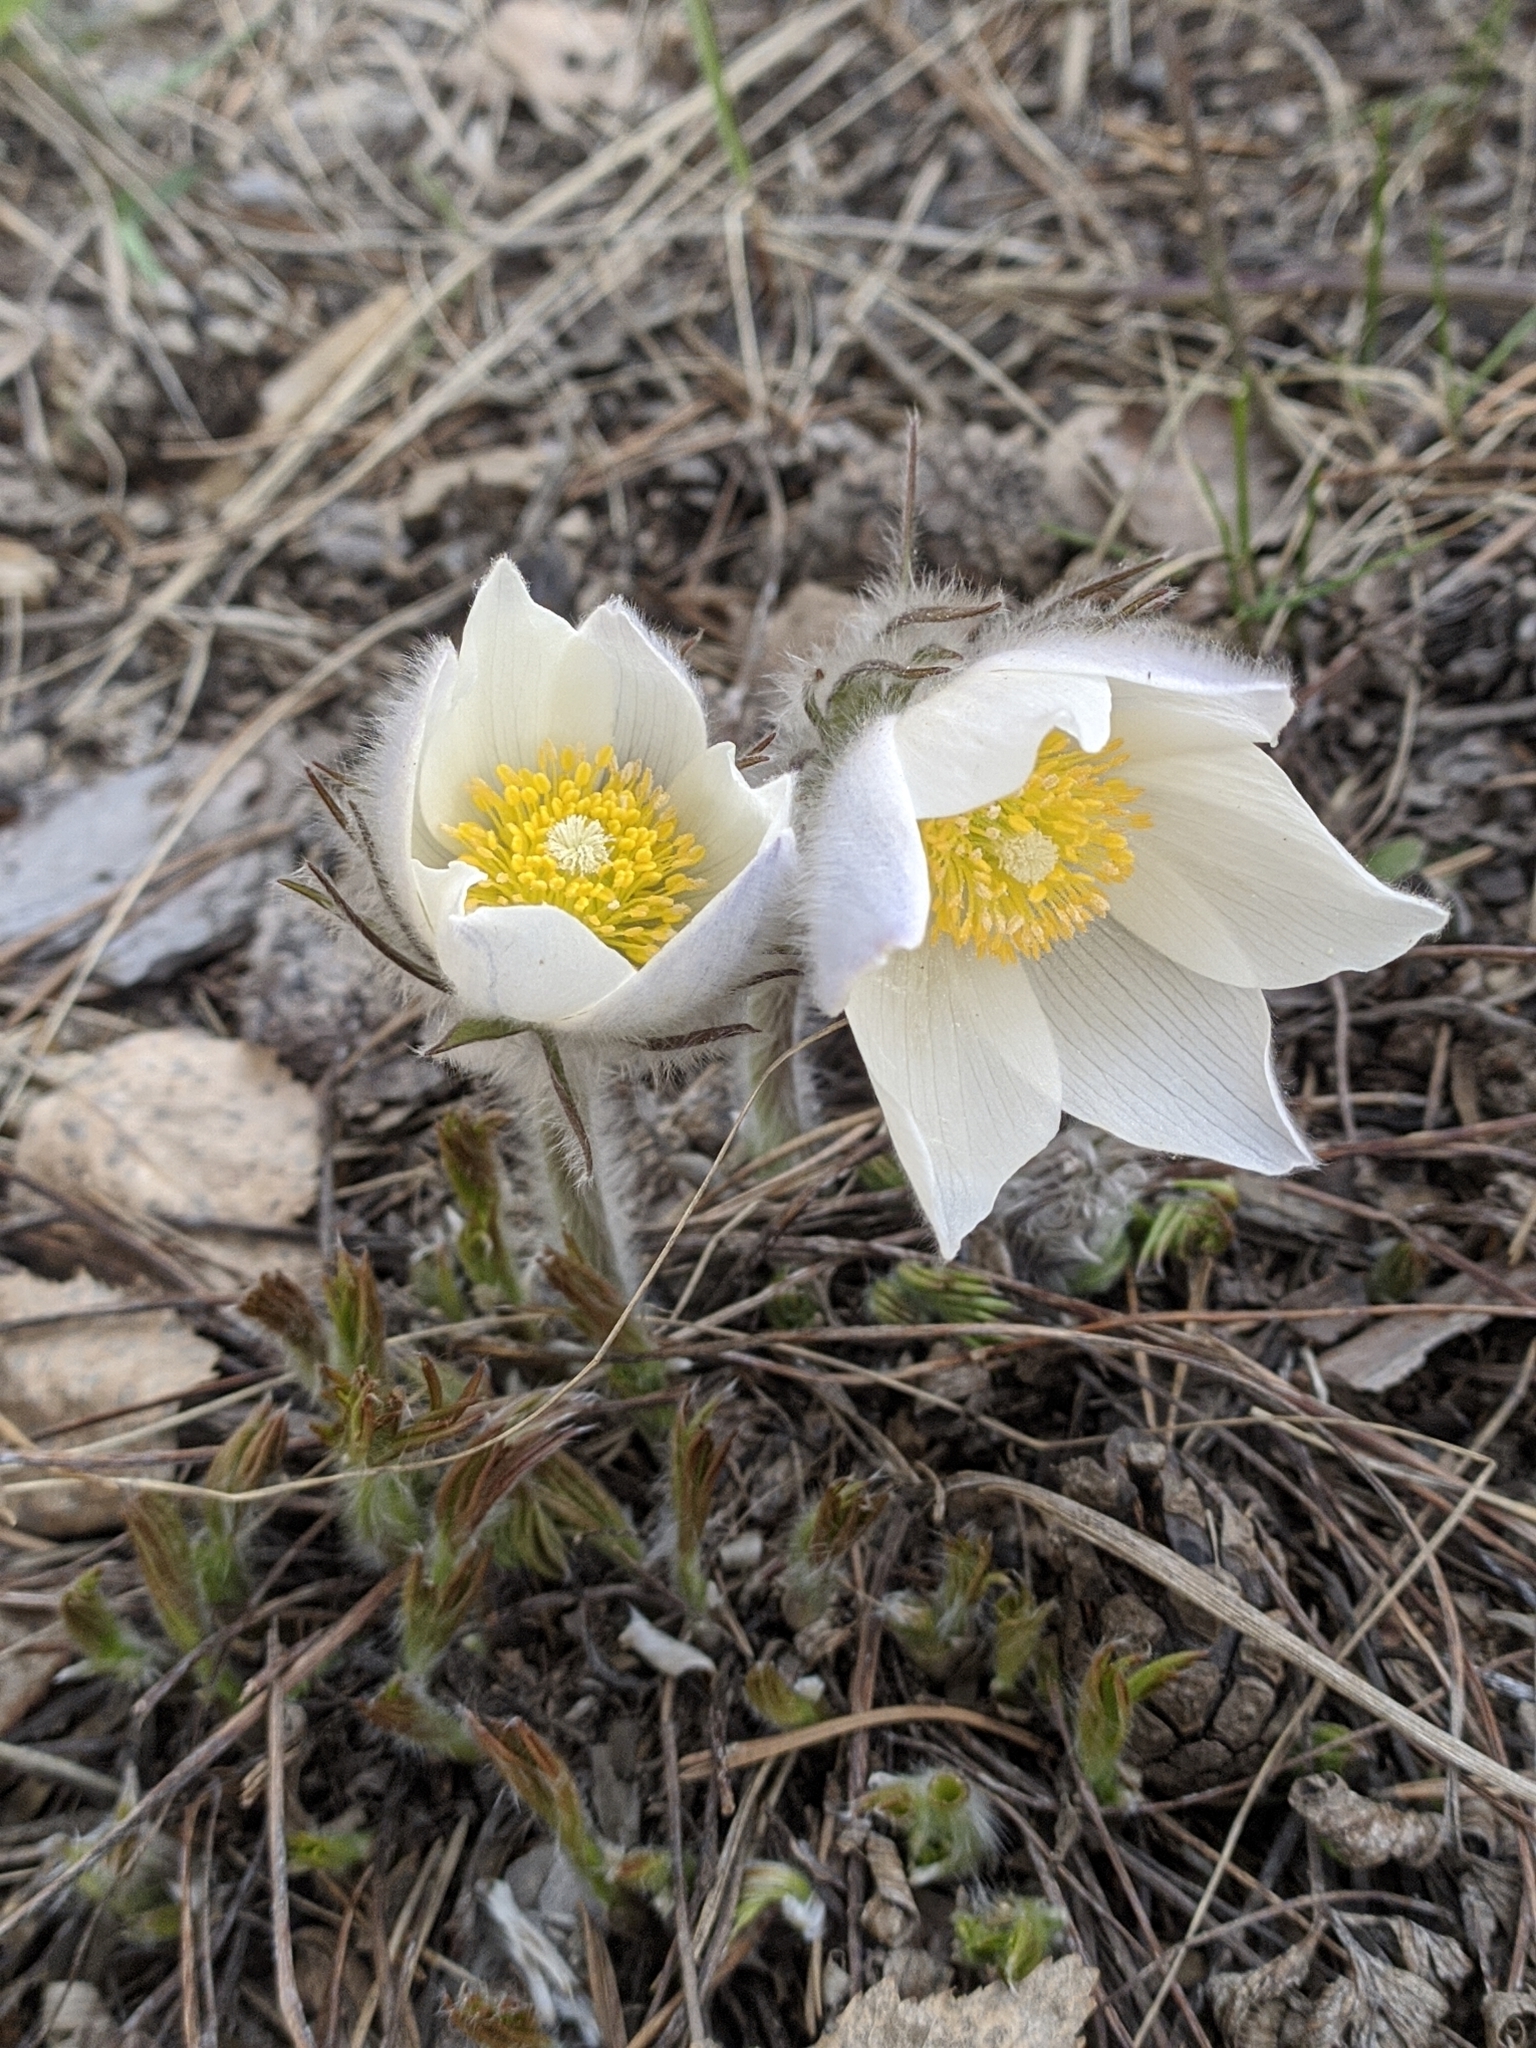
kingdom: Plantae
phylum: Tracheophyta
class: Magnoliopsida
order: Ranunculales
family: Ranunculaceae
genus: Pulsatilla
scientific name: Pulsatilla patens
